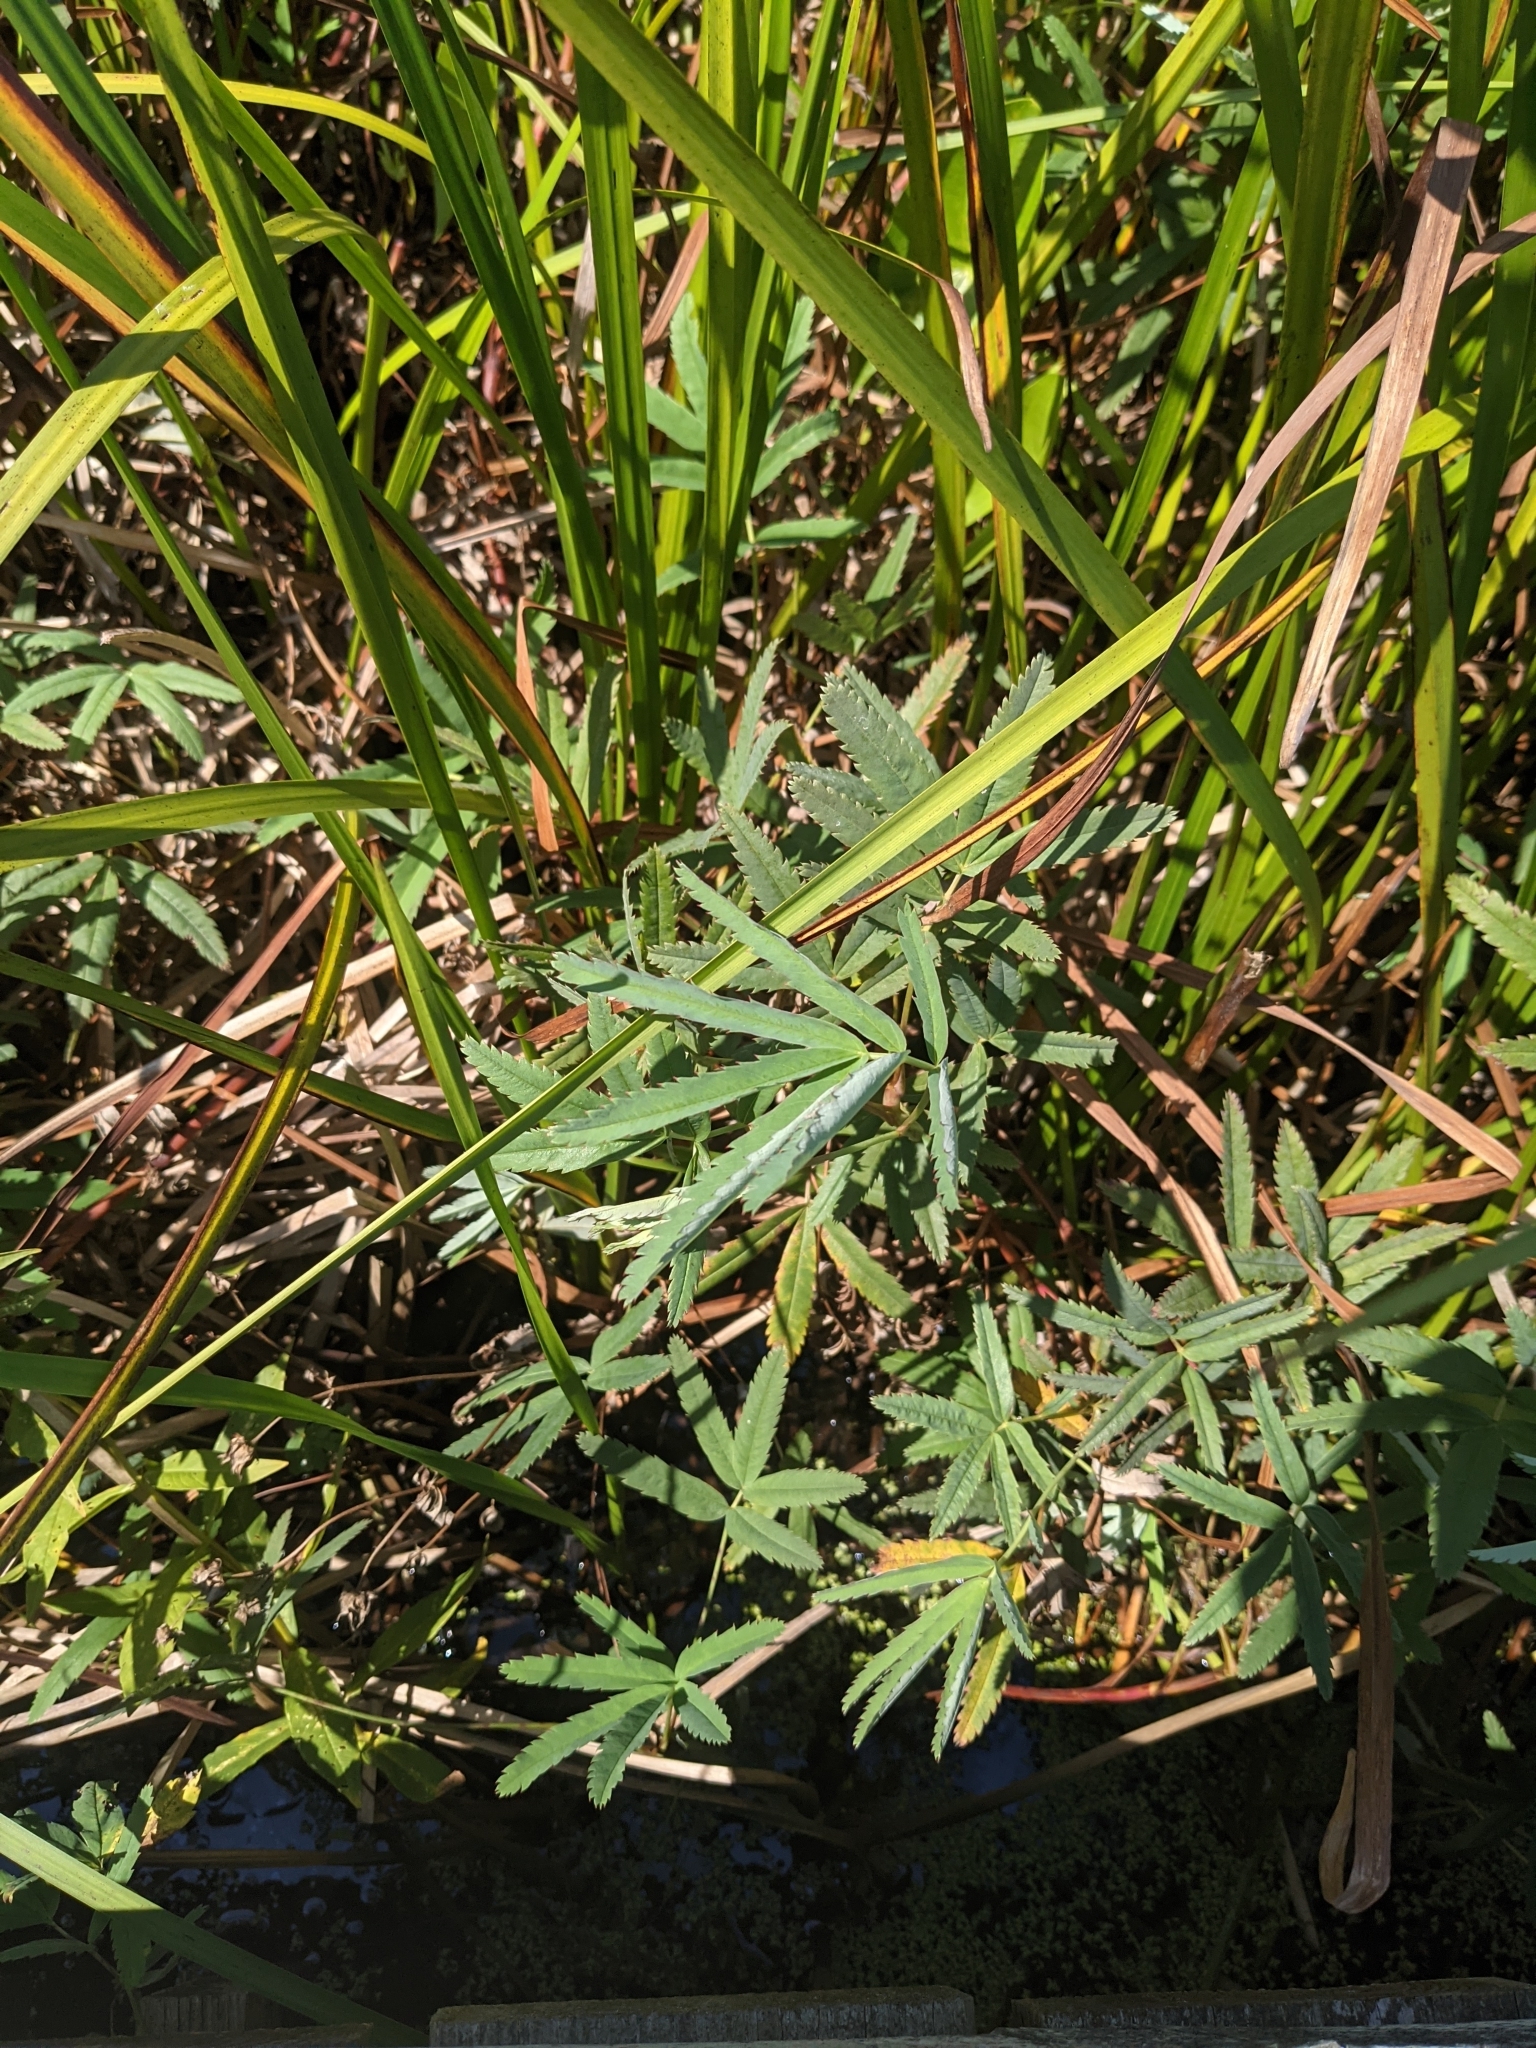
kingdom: Plantae
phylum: Tracheophyta
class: Magnoliopsida
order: Rosales
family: Rosaceae
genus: Comarum
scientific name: Comarum palustre
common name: Marsh cinquefoil
